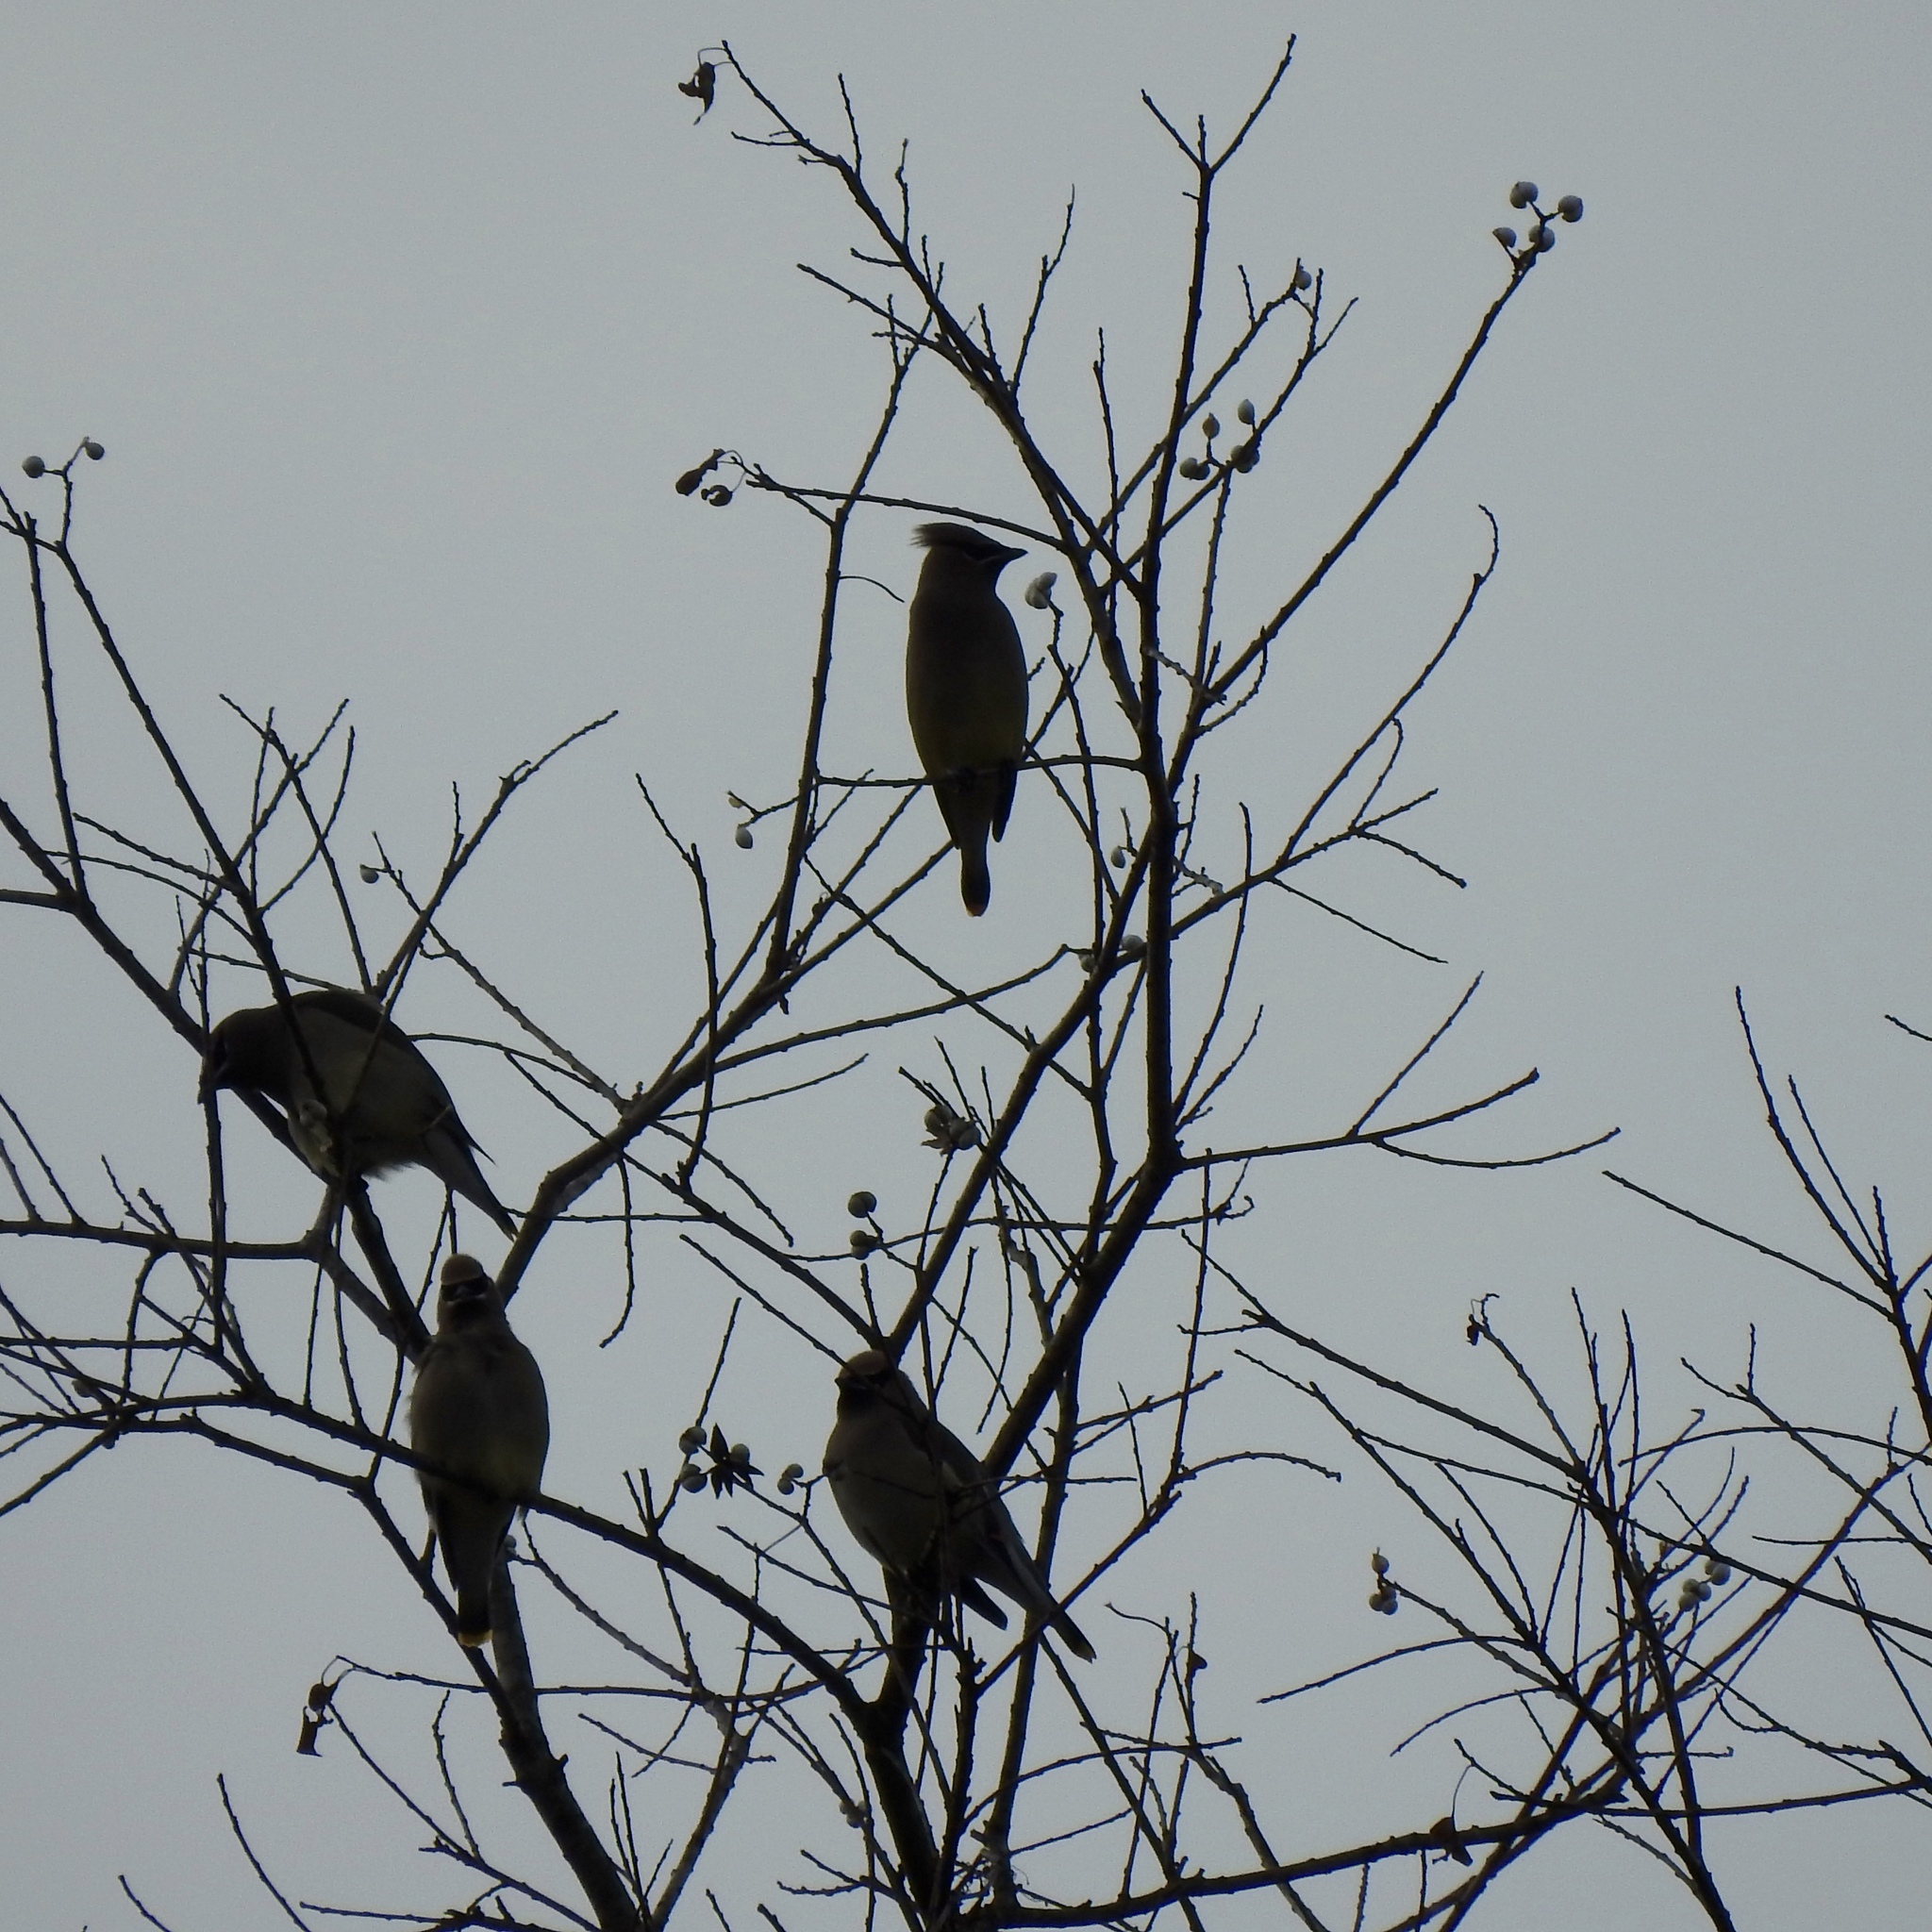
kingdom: Animalia
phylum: Chordata
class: Aves
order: Passeriformes
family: Bombycillidae
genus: Bombycilla
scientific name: Bombycilla cedrorum
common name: Cedar waxwing
